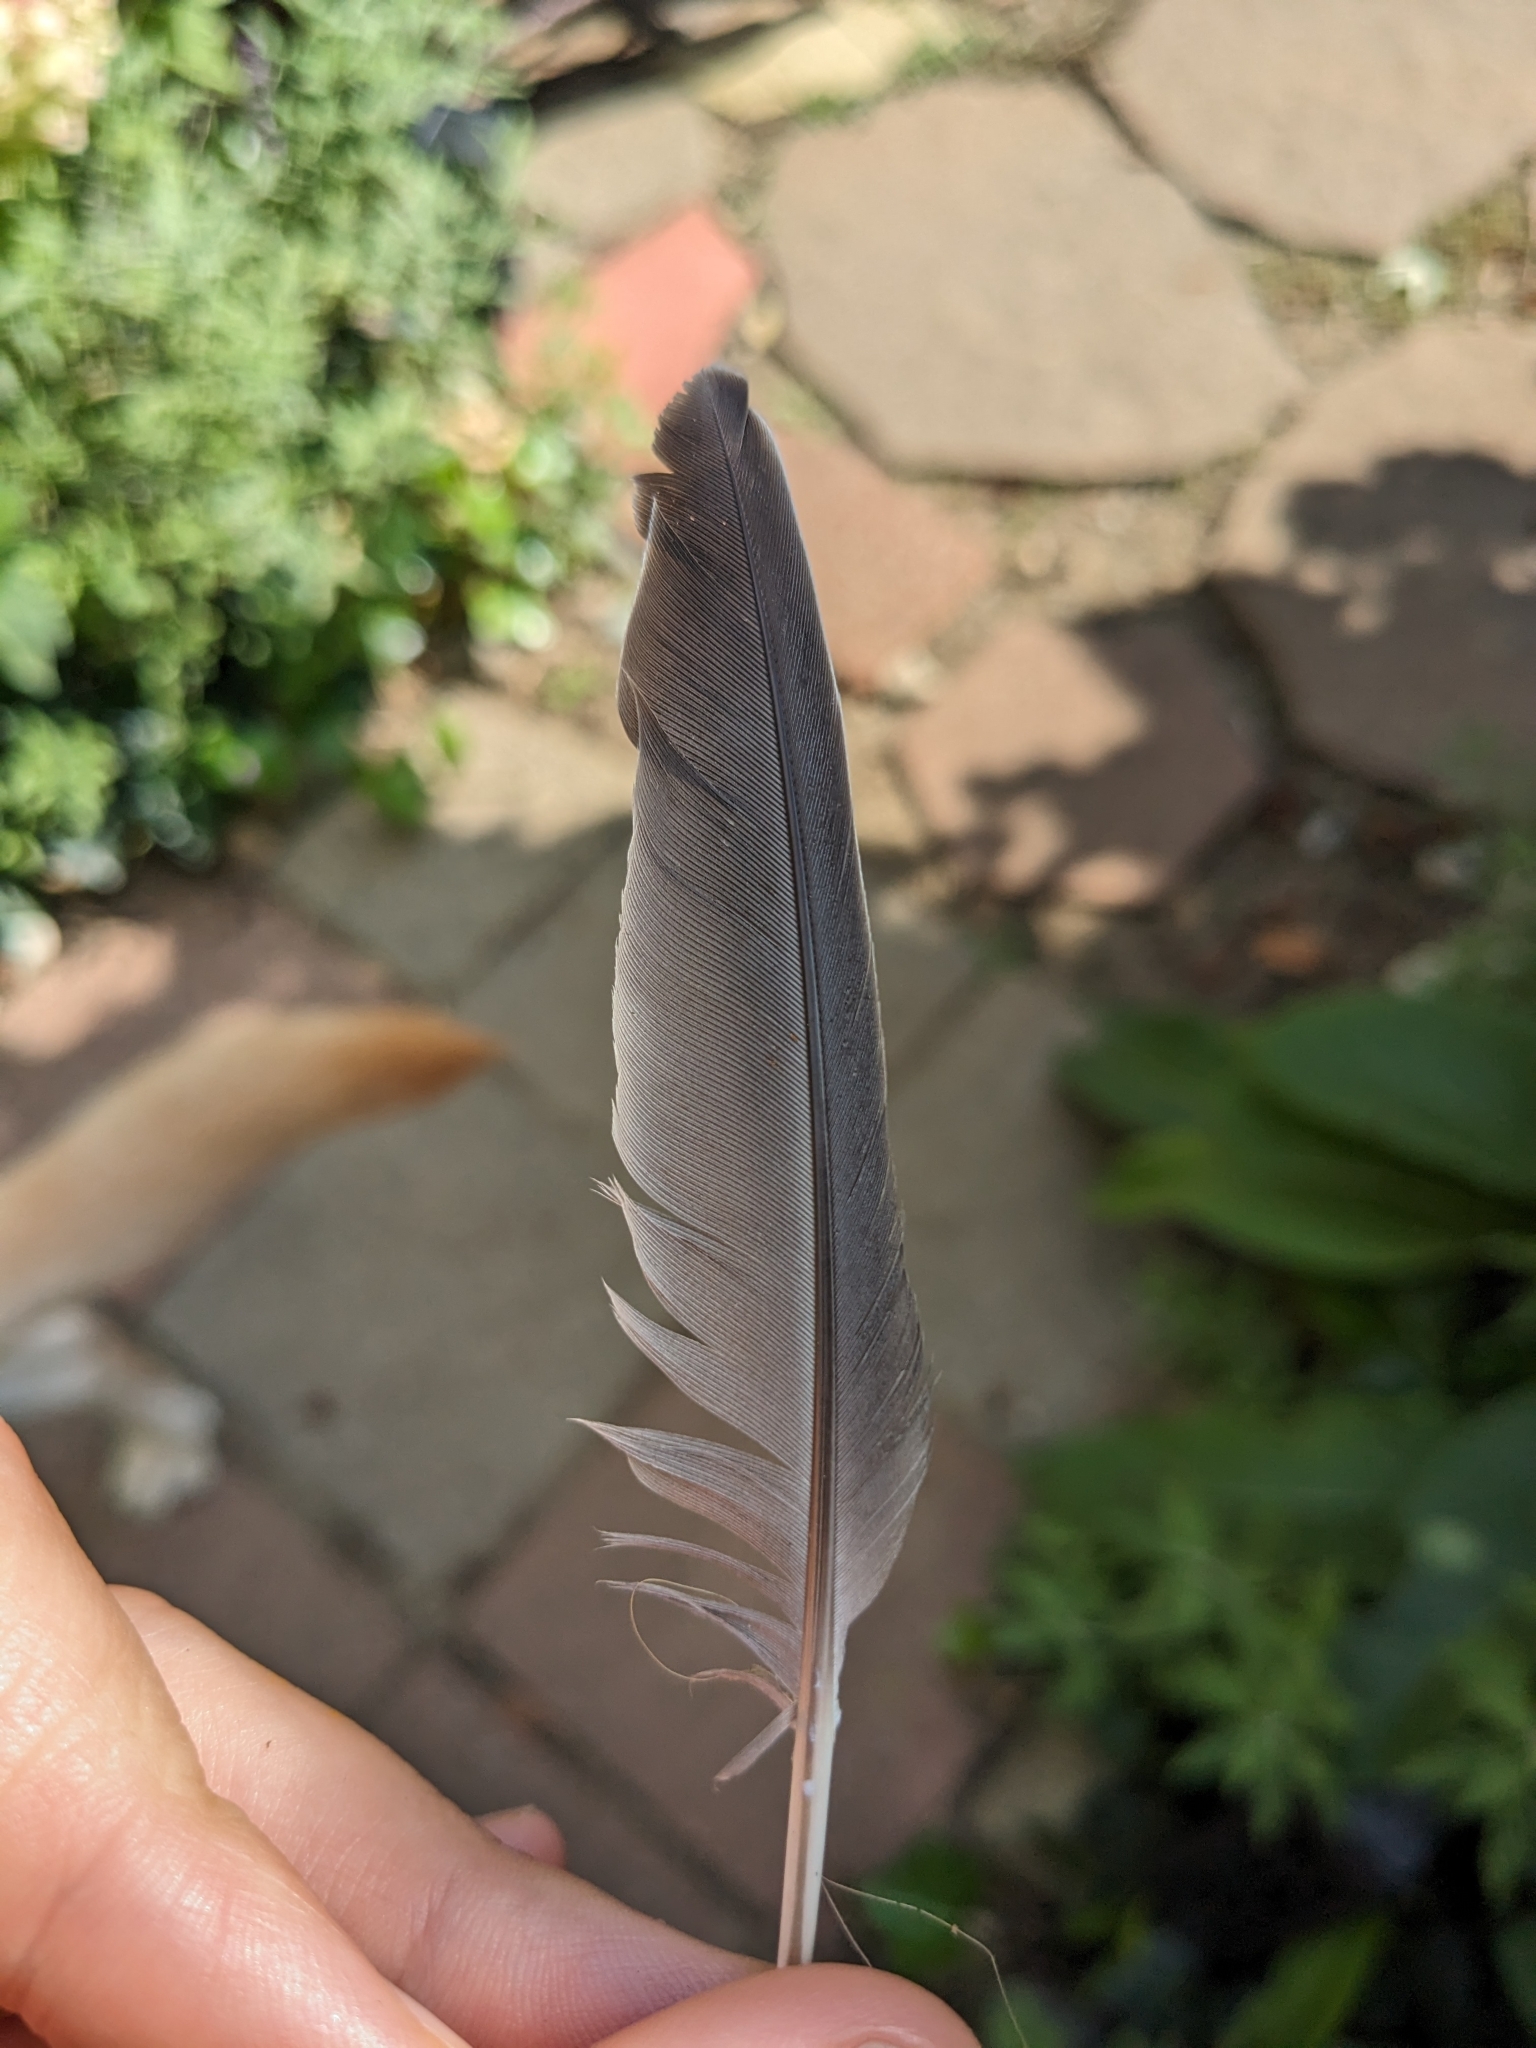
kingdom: Animalia
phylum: Chordata
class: Aves
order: Columbiformes
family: Columbidae
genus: Zenaida
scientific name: Zenaida macroura
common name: Mourning dove
